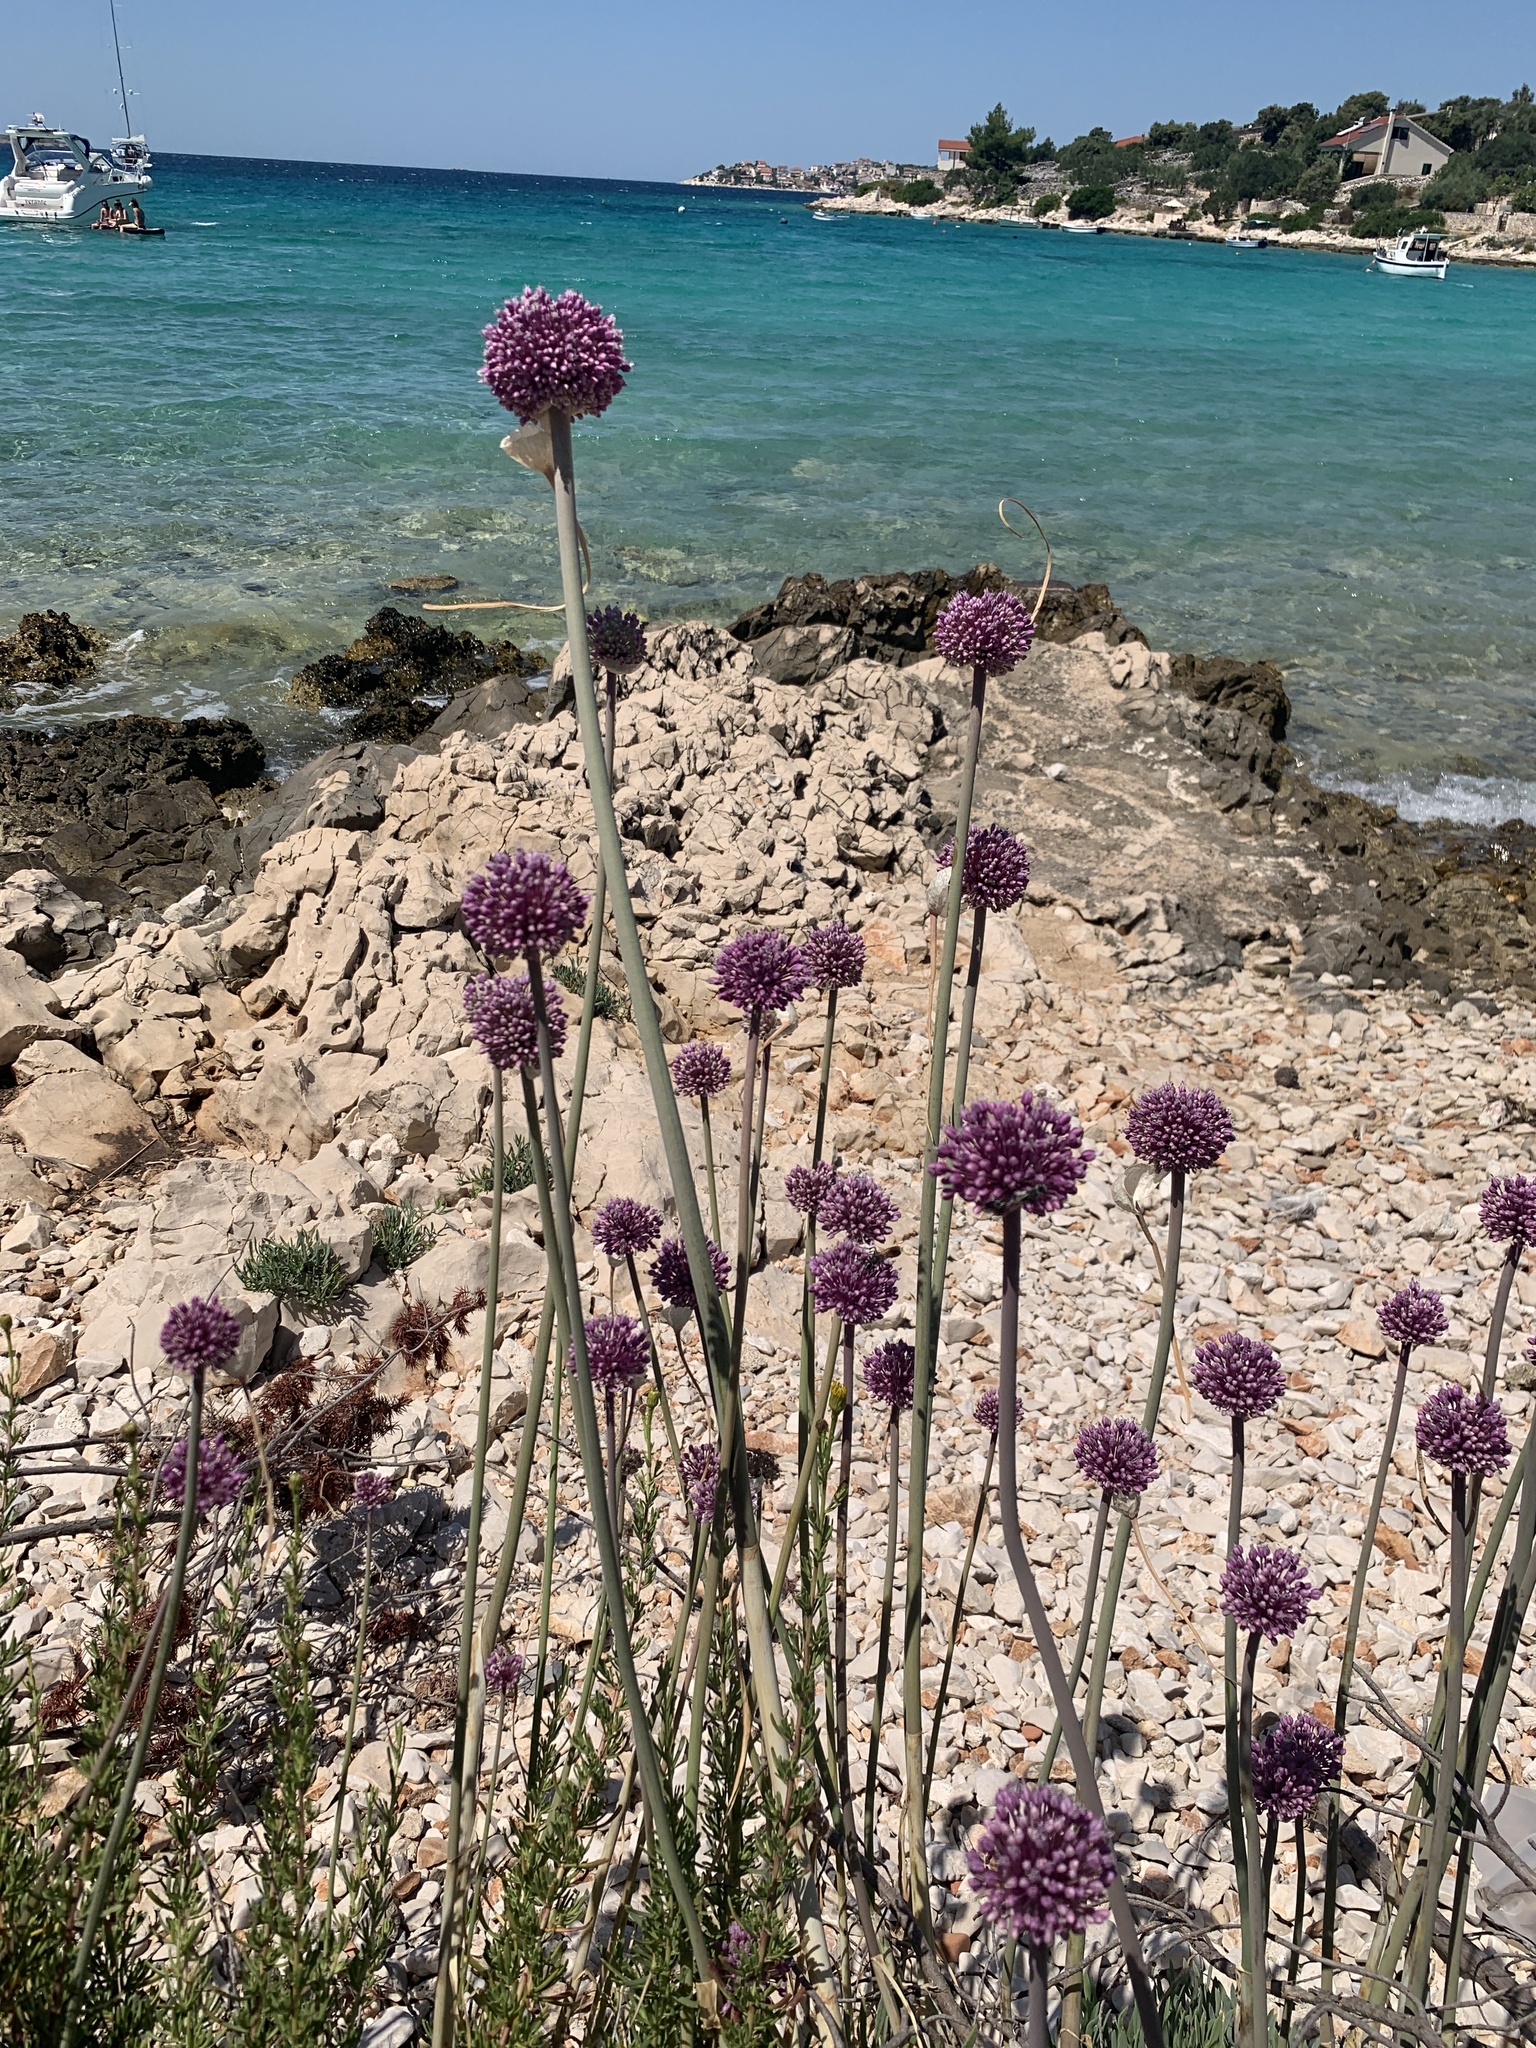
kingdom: Plantae
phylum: Tracheophyta
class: Liliopsida
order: Asparagales
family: Amaryllidaceae
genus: Allium
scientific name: Allium commutatum
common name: Sea garlic
